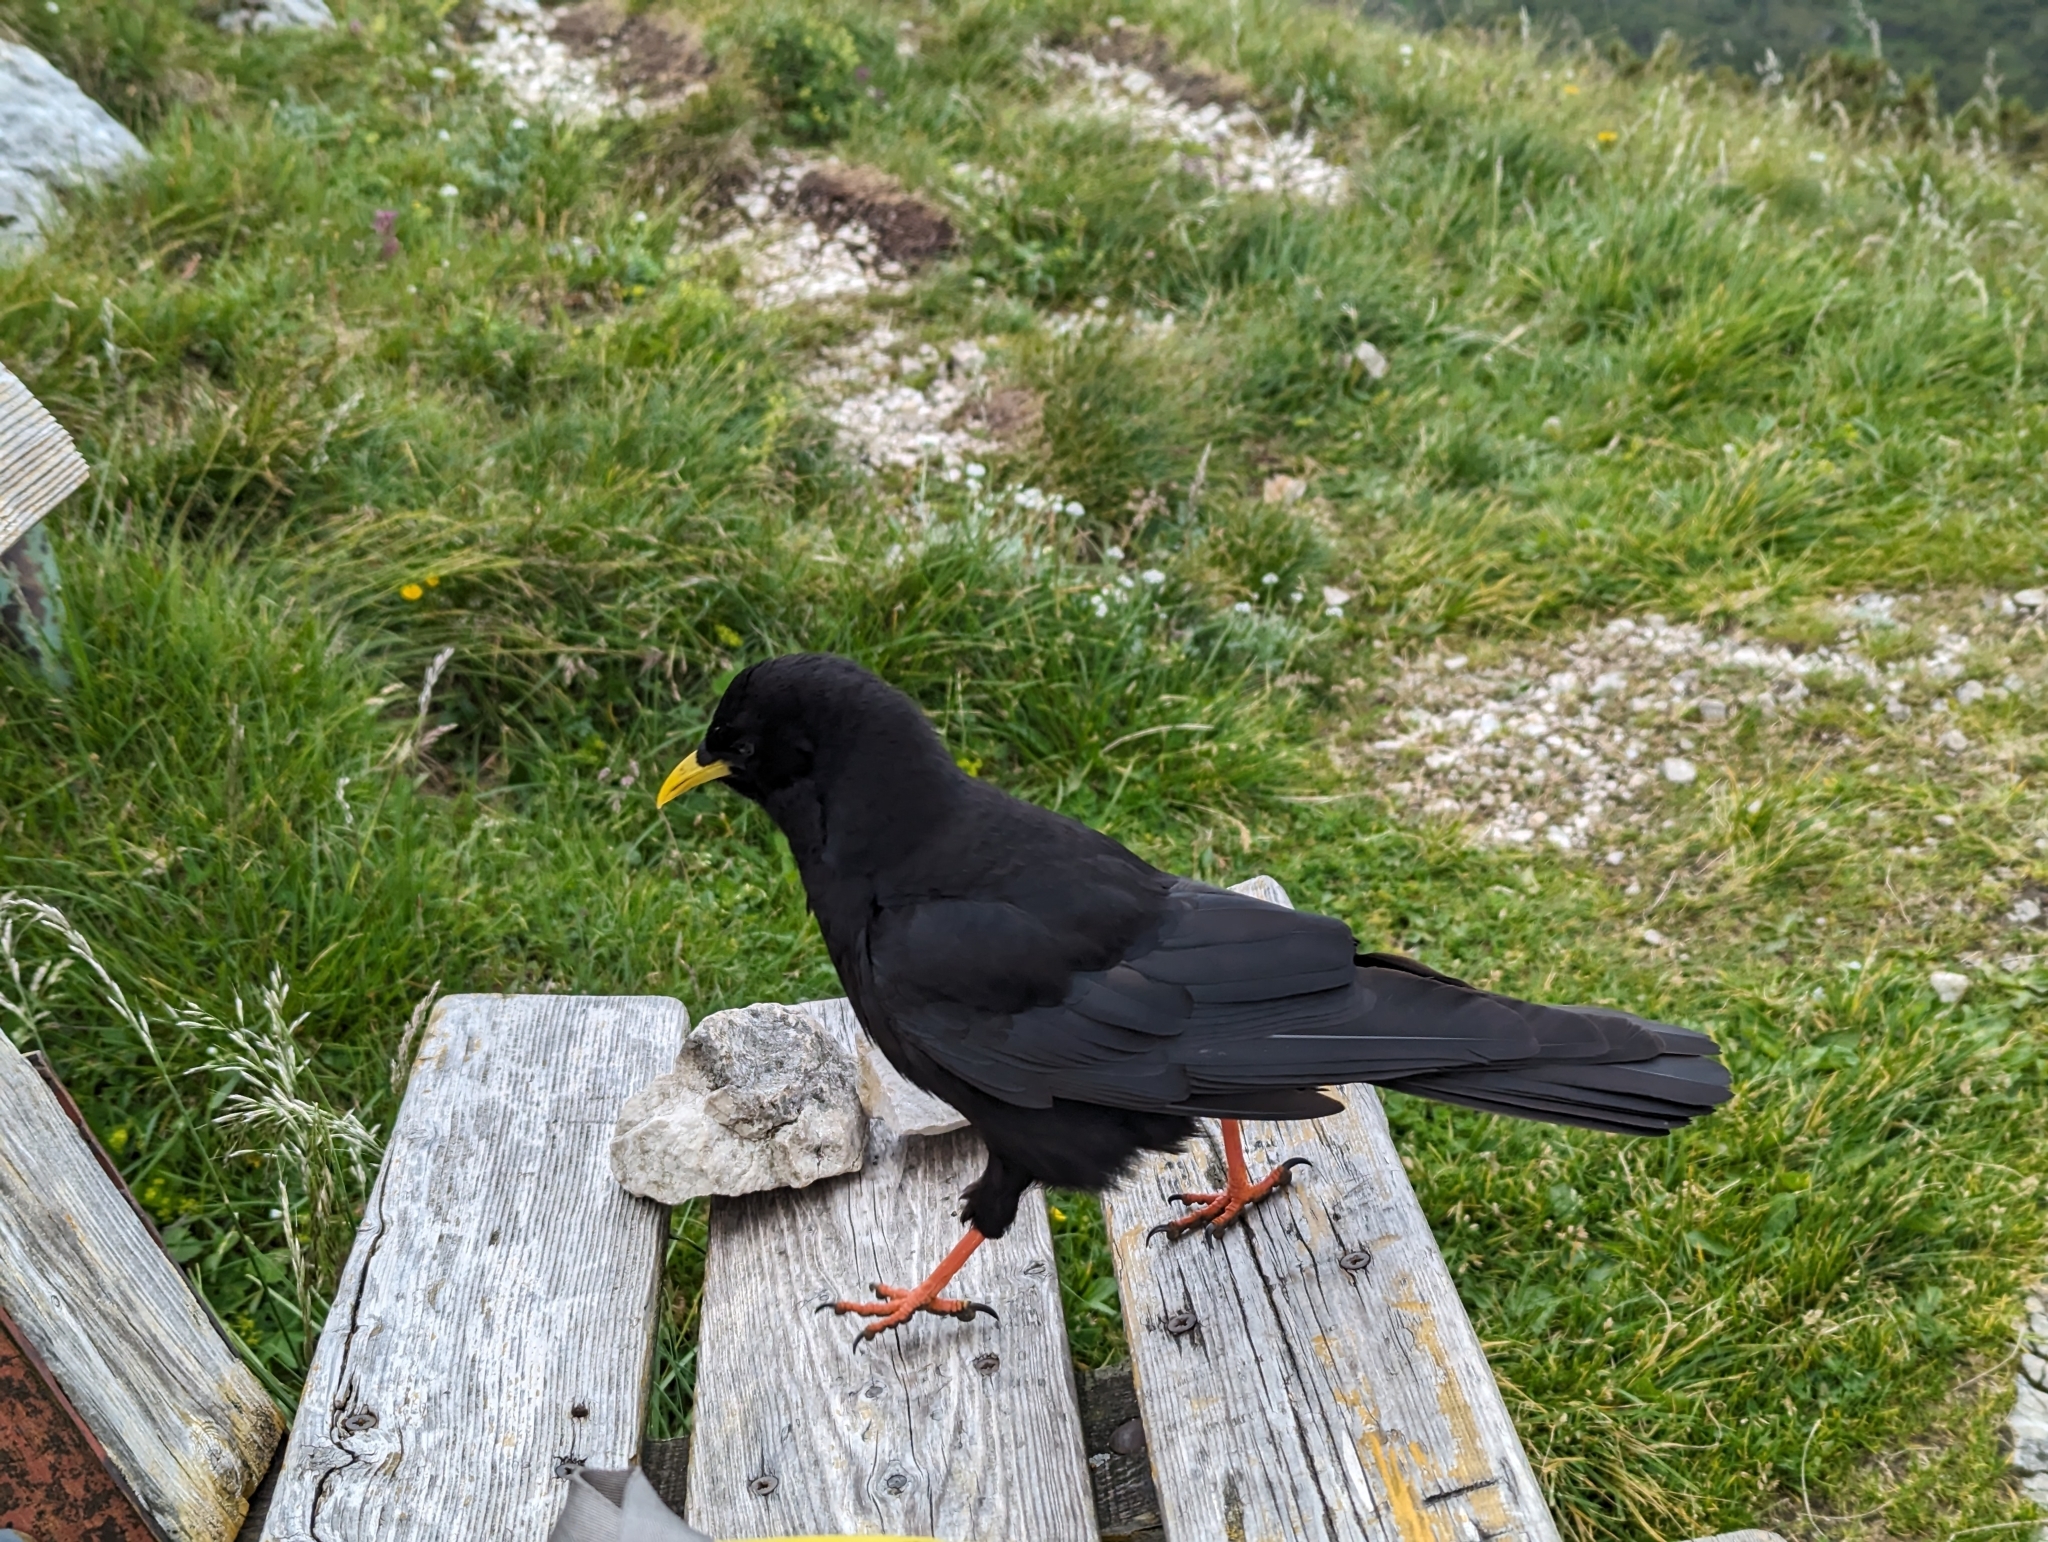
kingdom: Animalia
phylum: Chordata
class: Aves
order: Passeriformes
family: Corvidae
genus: Pyrrhocorax
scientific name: Pyrrhocorax graculus
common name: Alpine chough
